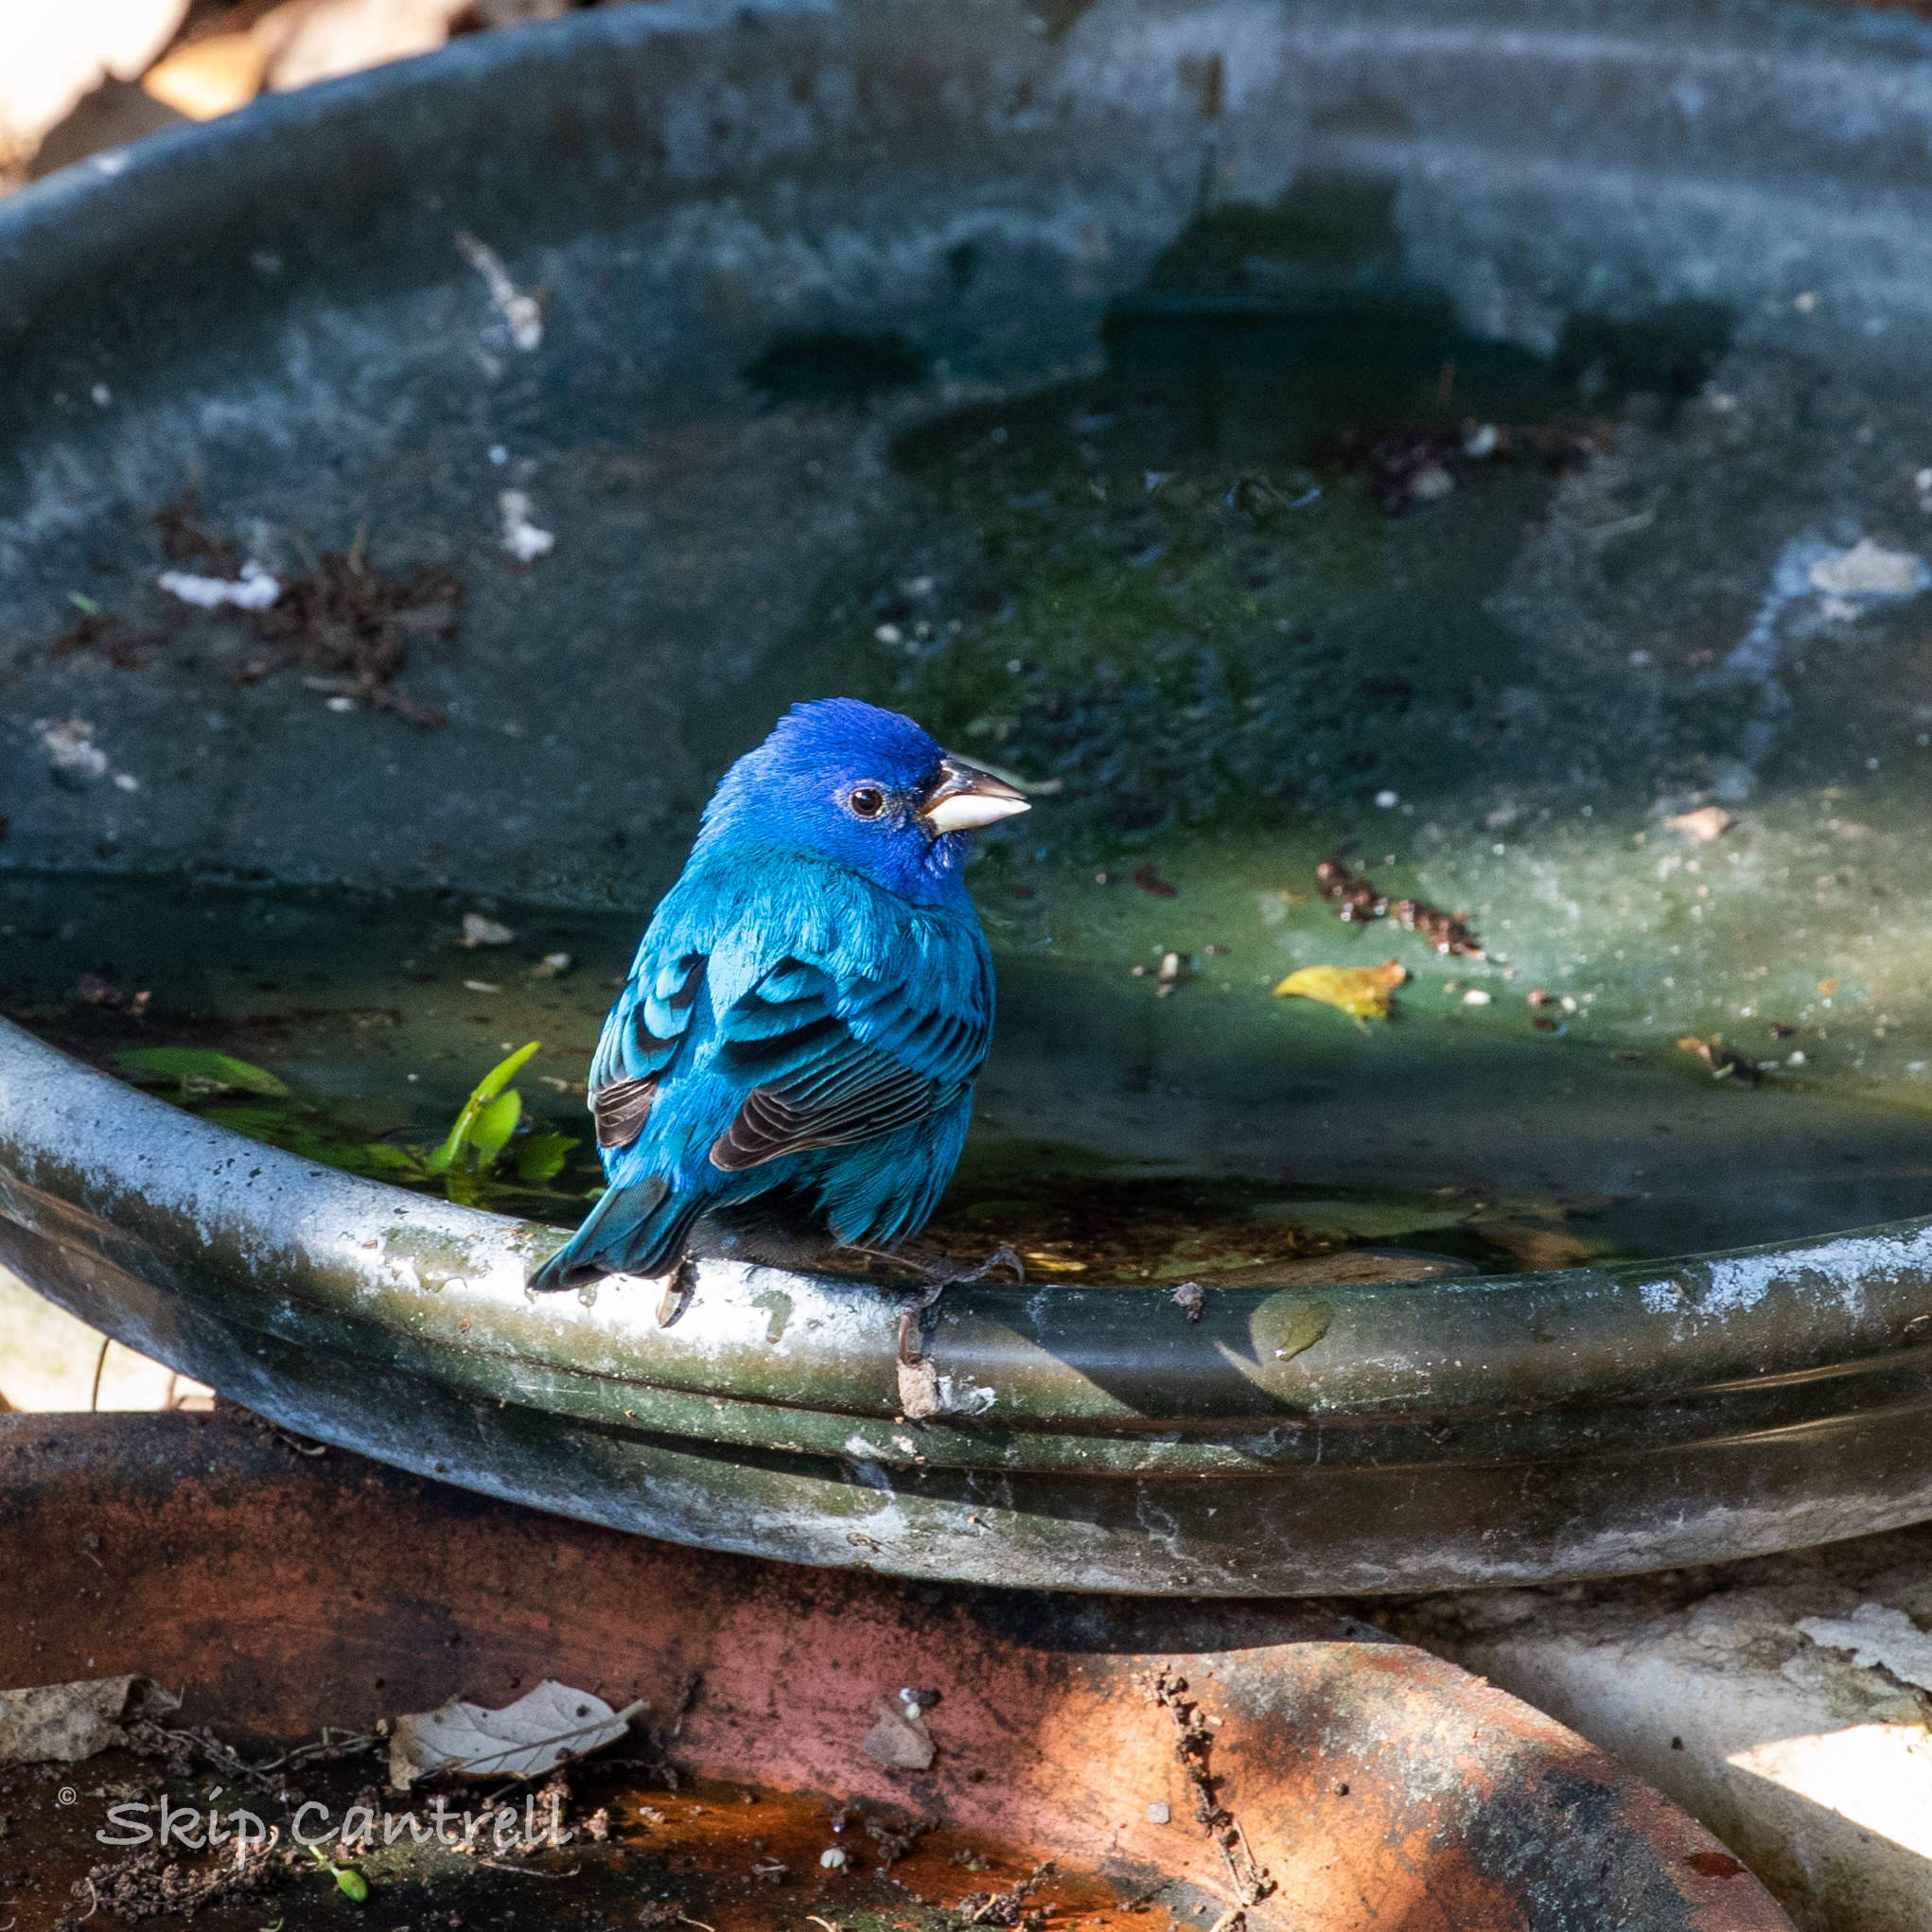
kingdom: Animalia
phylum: Chordata
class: Aves
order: Passeriformes
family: Cardinalidae
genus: Passerina
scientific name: Passerina cyanea
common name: Indigo bunting
